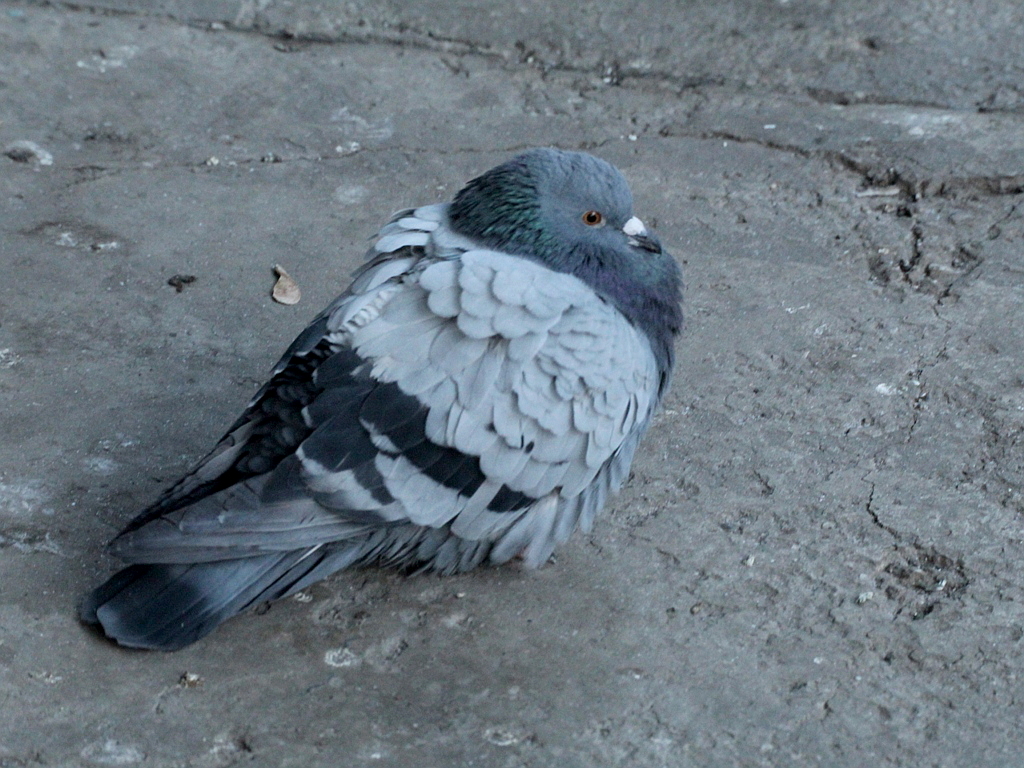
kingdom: Animalia
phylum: Chordata
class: Aves
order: Columbiformes
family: Columbidae
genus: Columba
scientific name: Columba livia
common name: Rock pigeon
